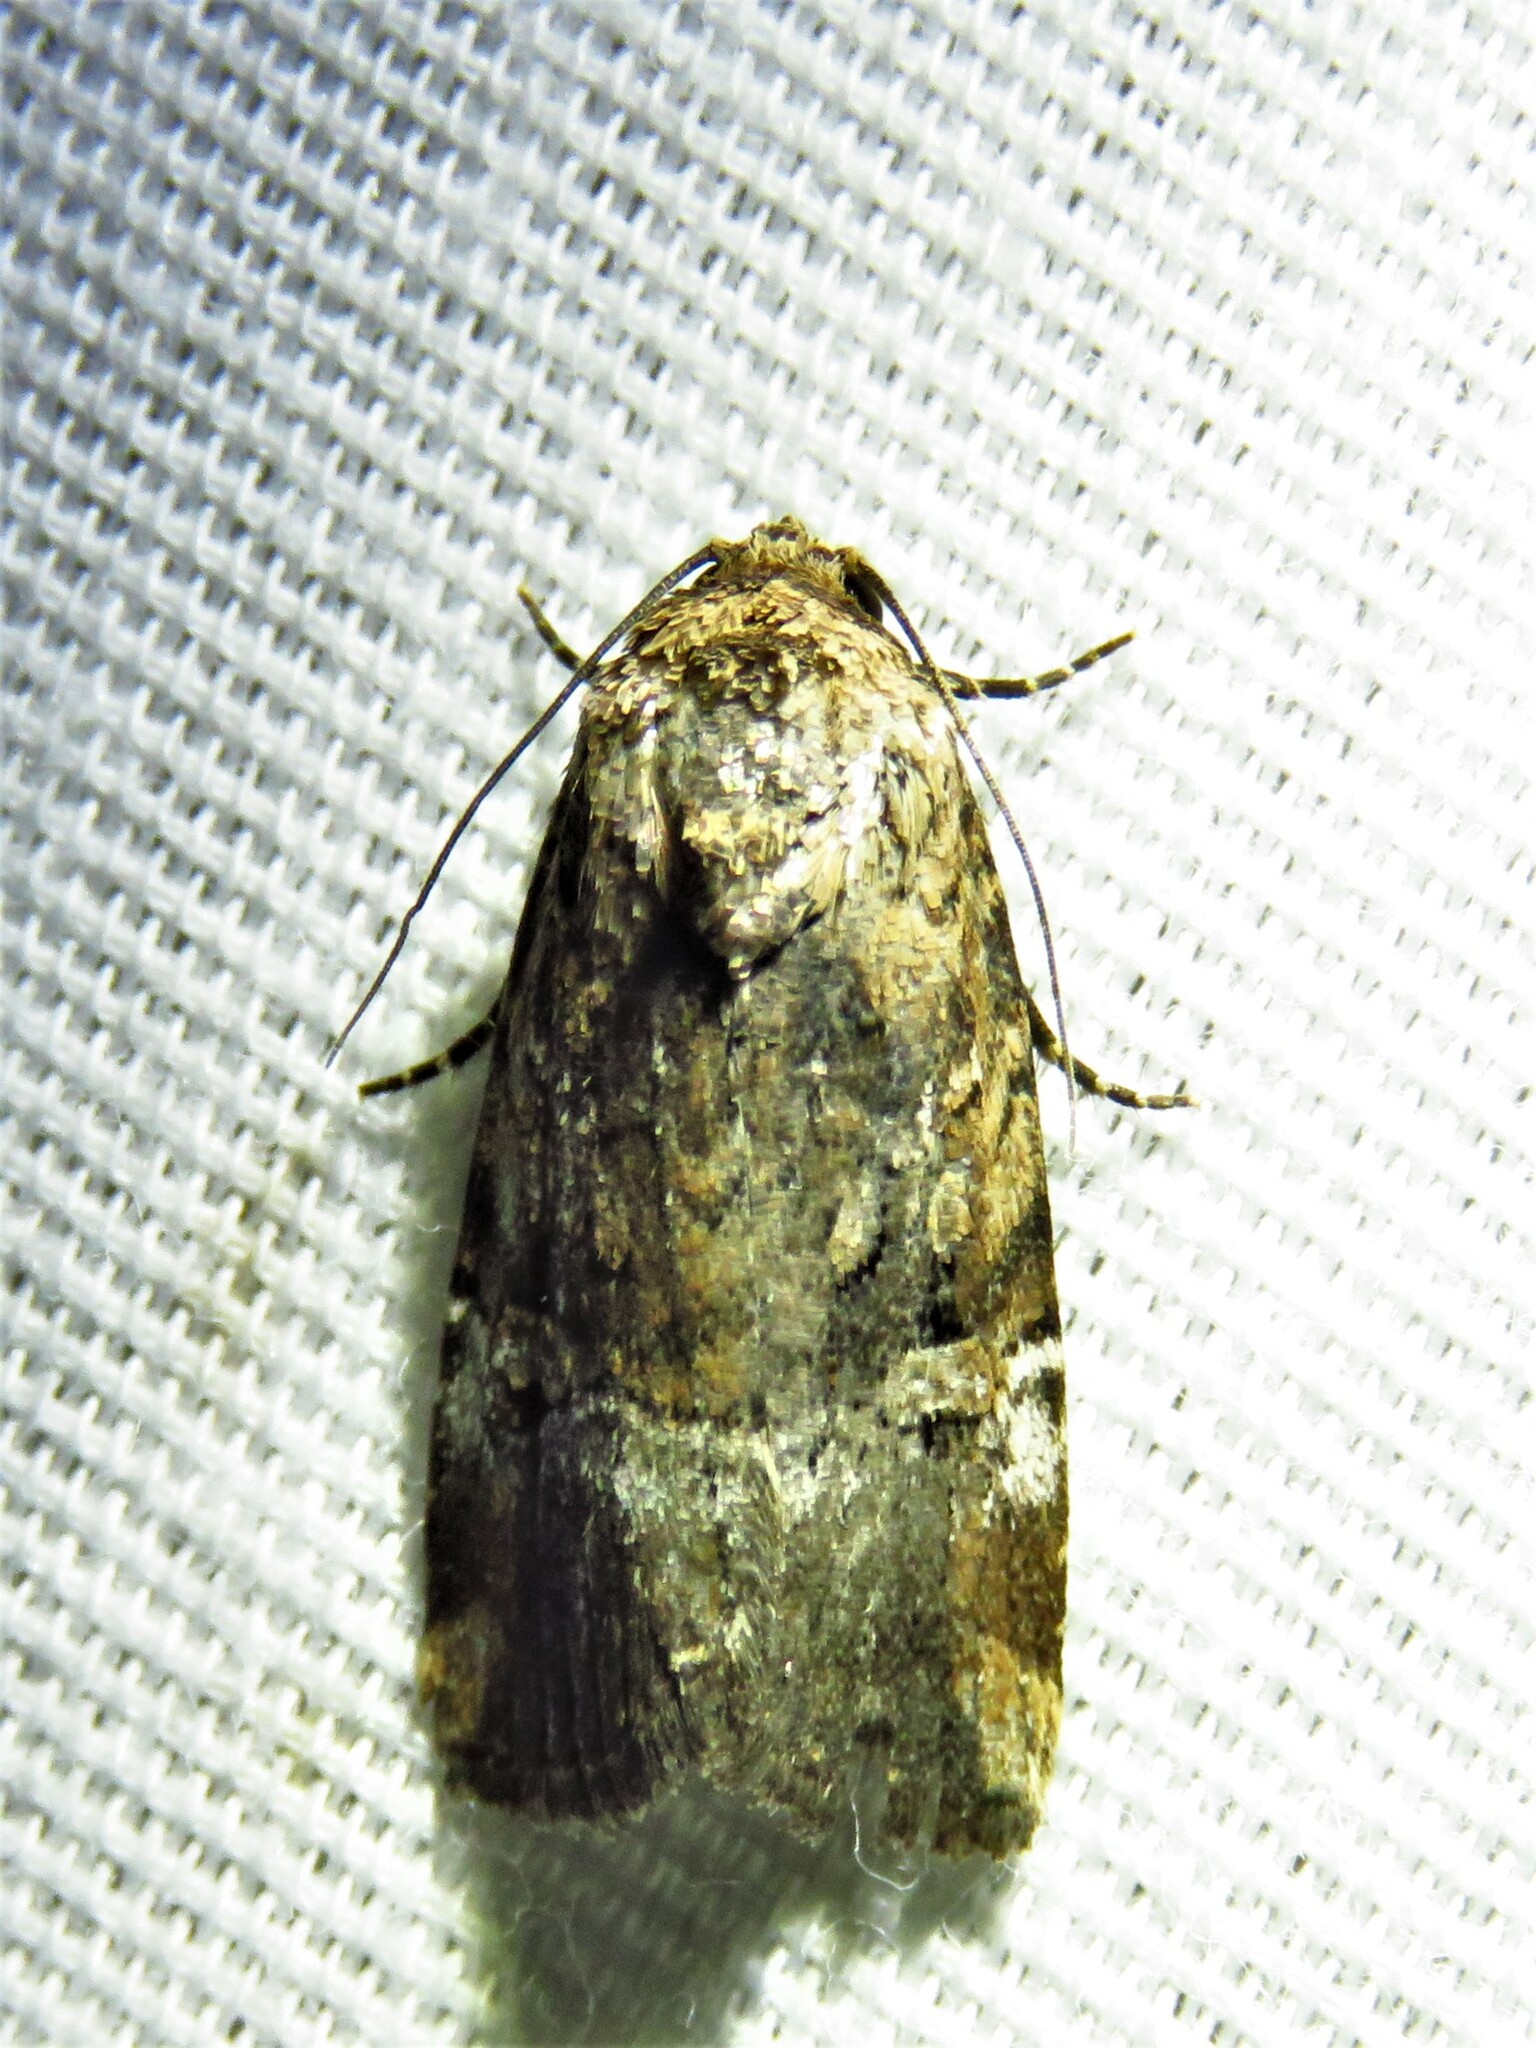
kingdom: Animalia
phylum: Arthropoda
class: Insecta
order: Lepidoptera
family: Noctuidae
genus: Elaphria
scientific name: Elaphria chalcedonia
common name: Chalcedony midget
